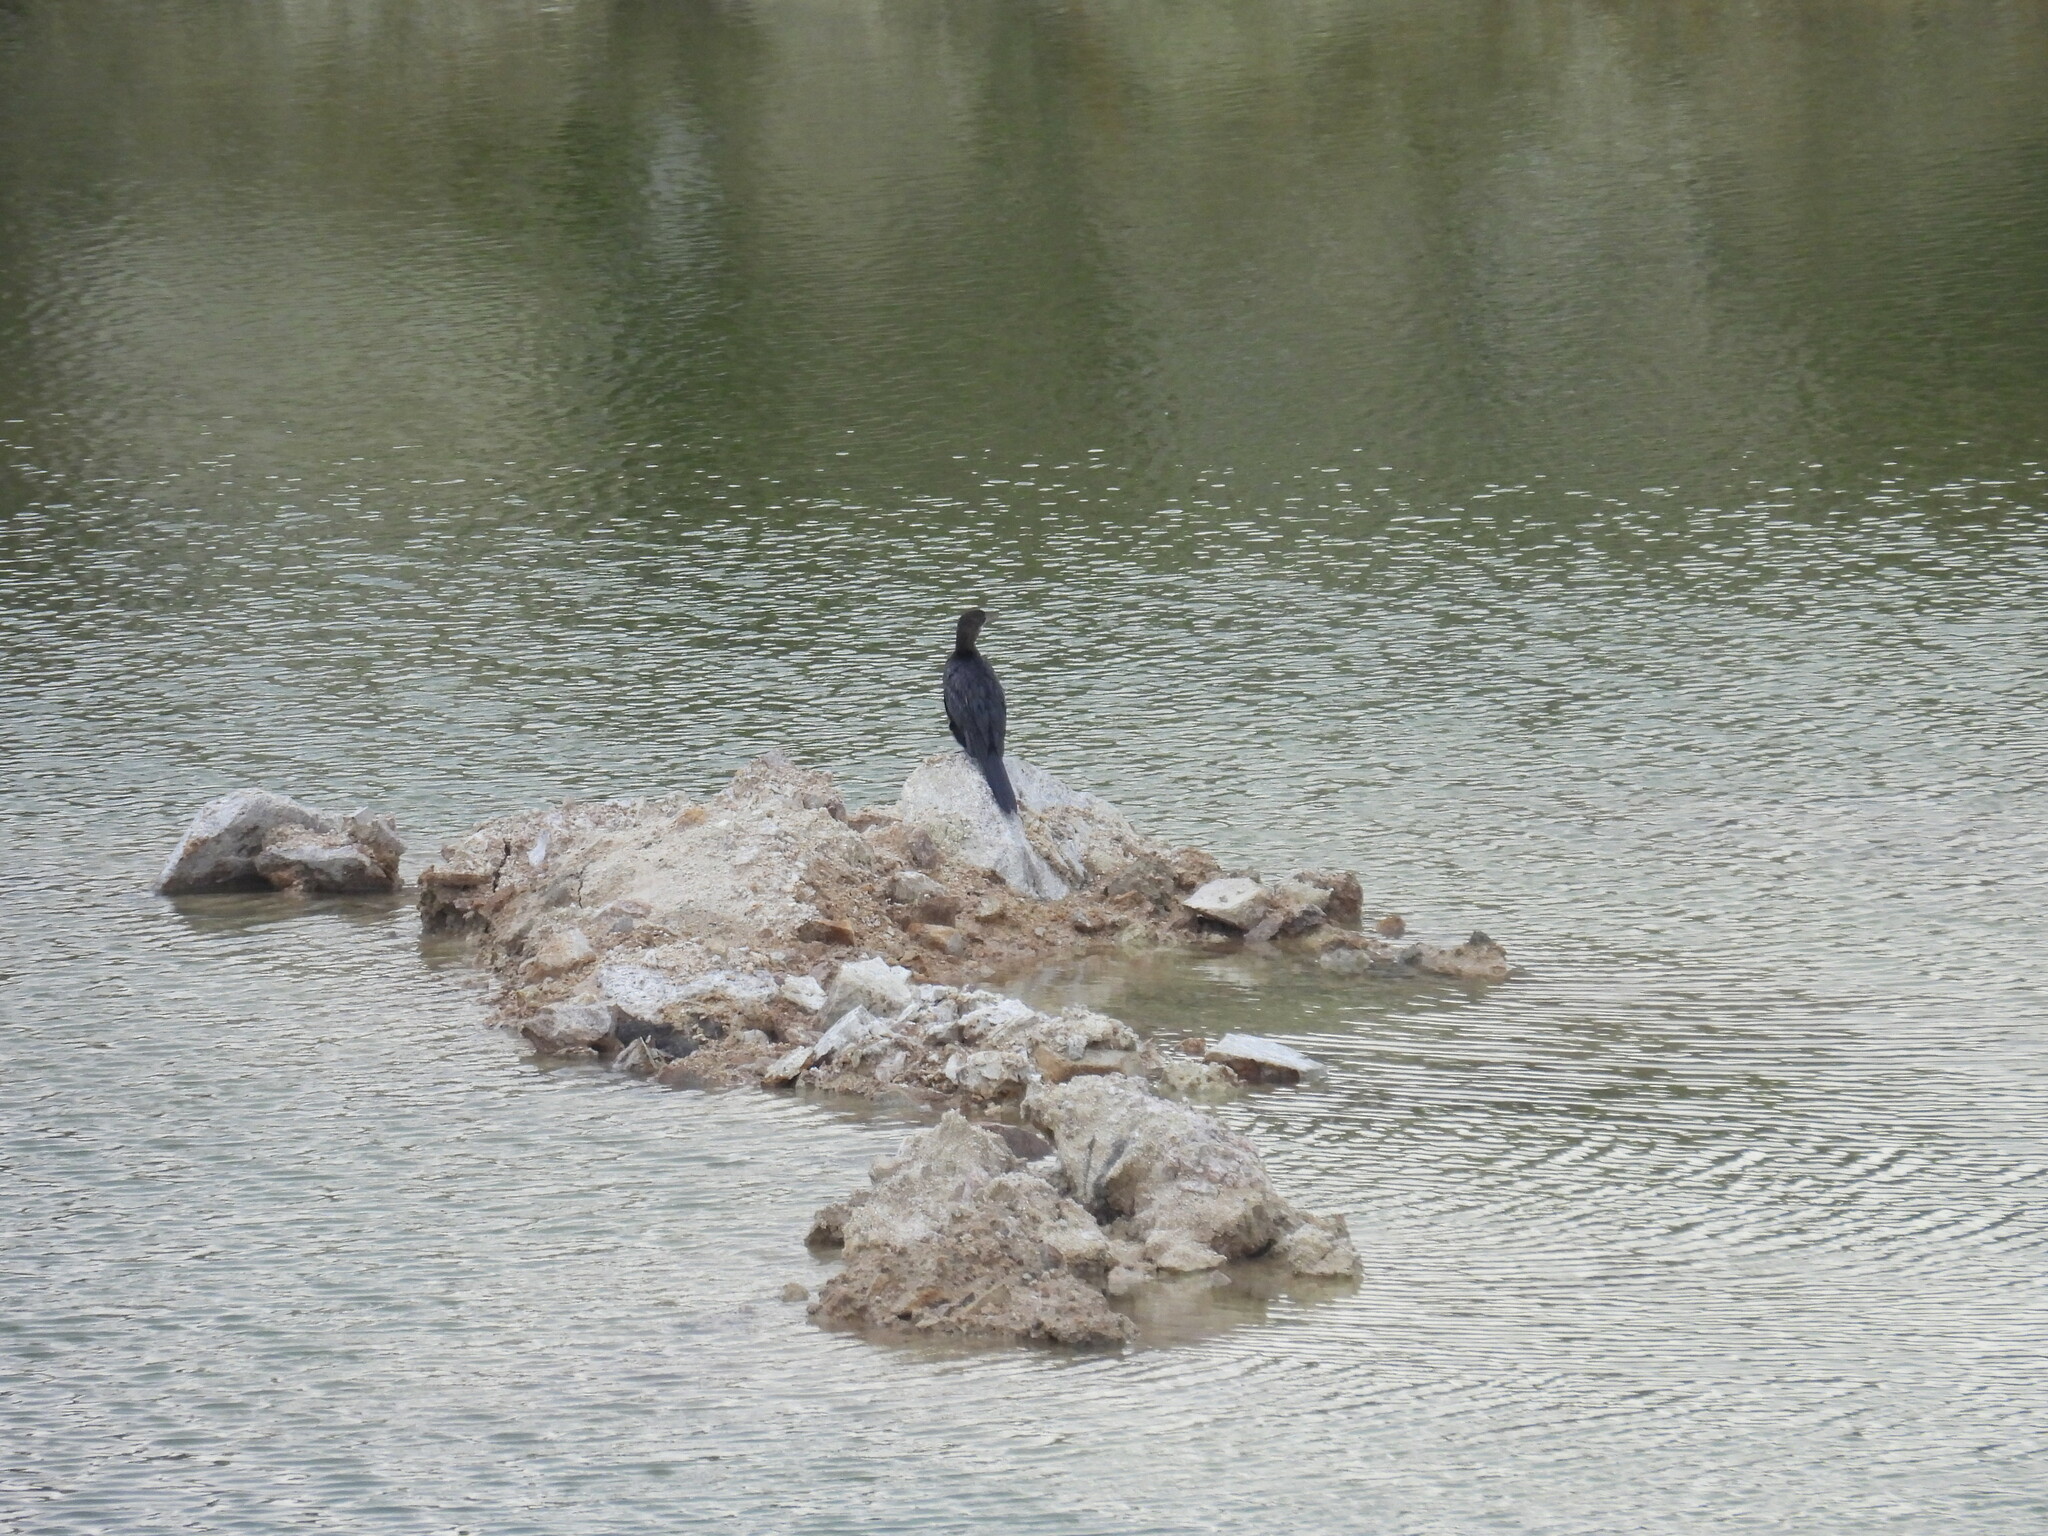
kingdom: Animalia
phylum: Chordata
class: Aves
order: Suliformes
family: Phalacrocoracidae
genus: Microcarbo
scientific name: Microcarbo niger
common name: Little cormorant
